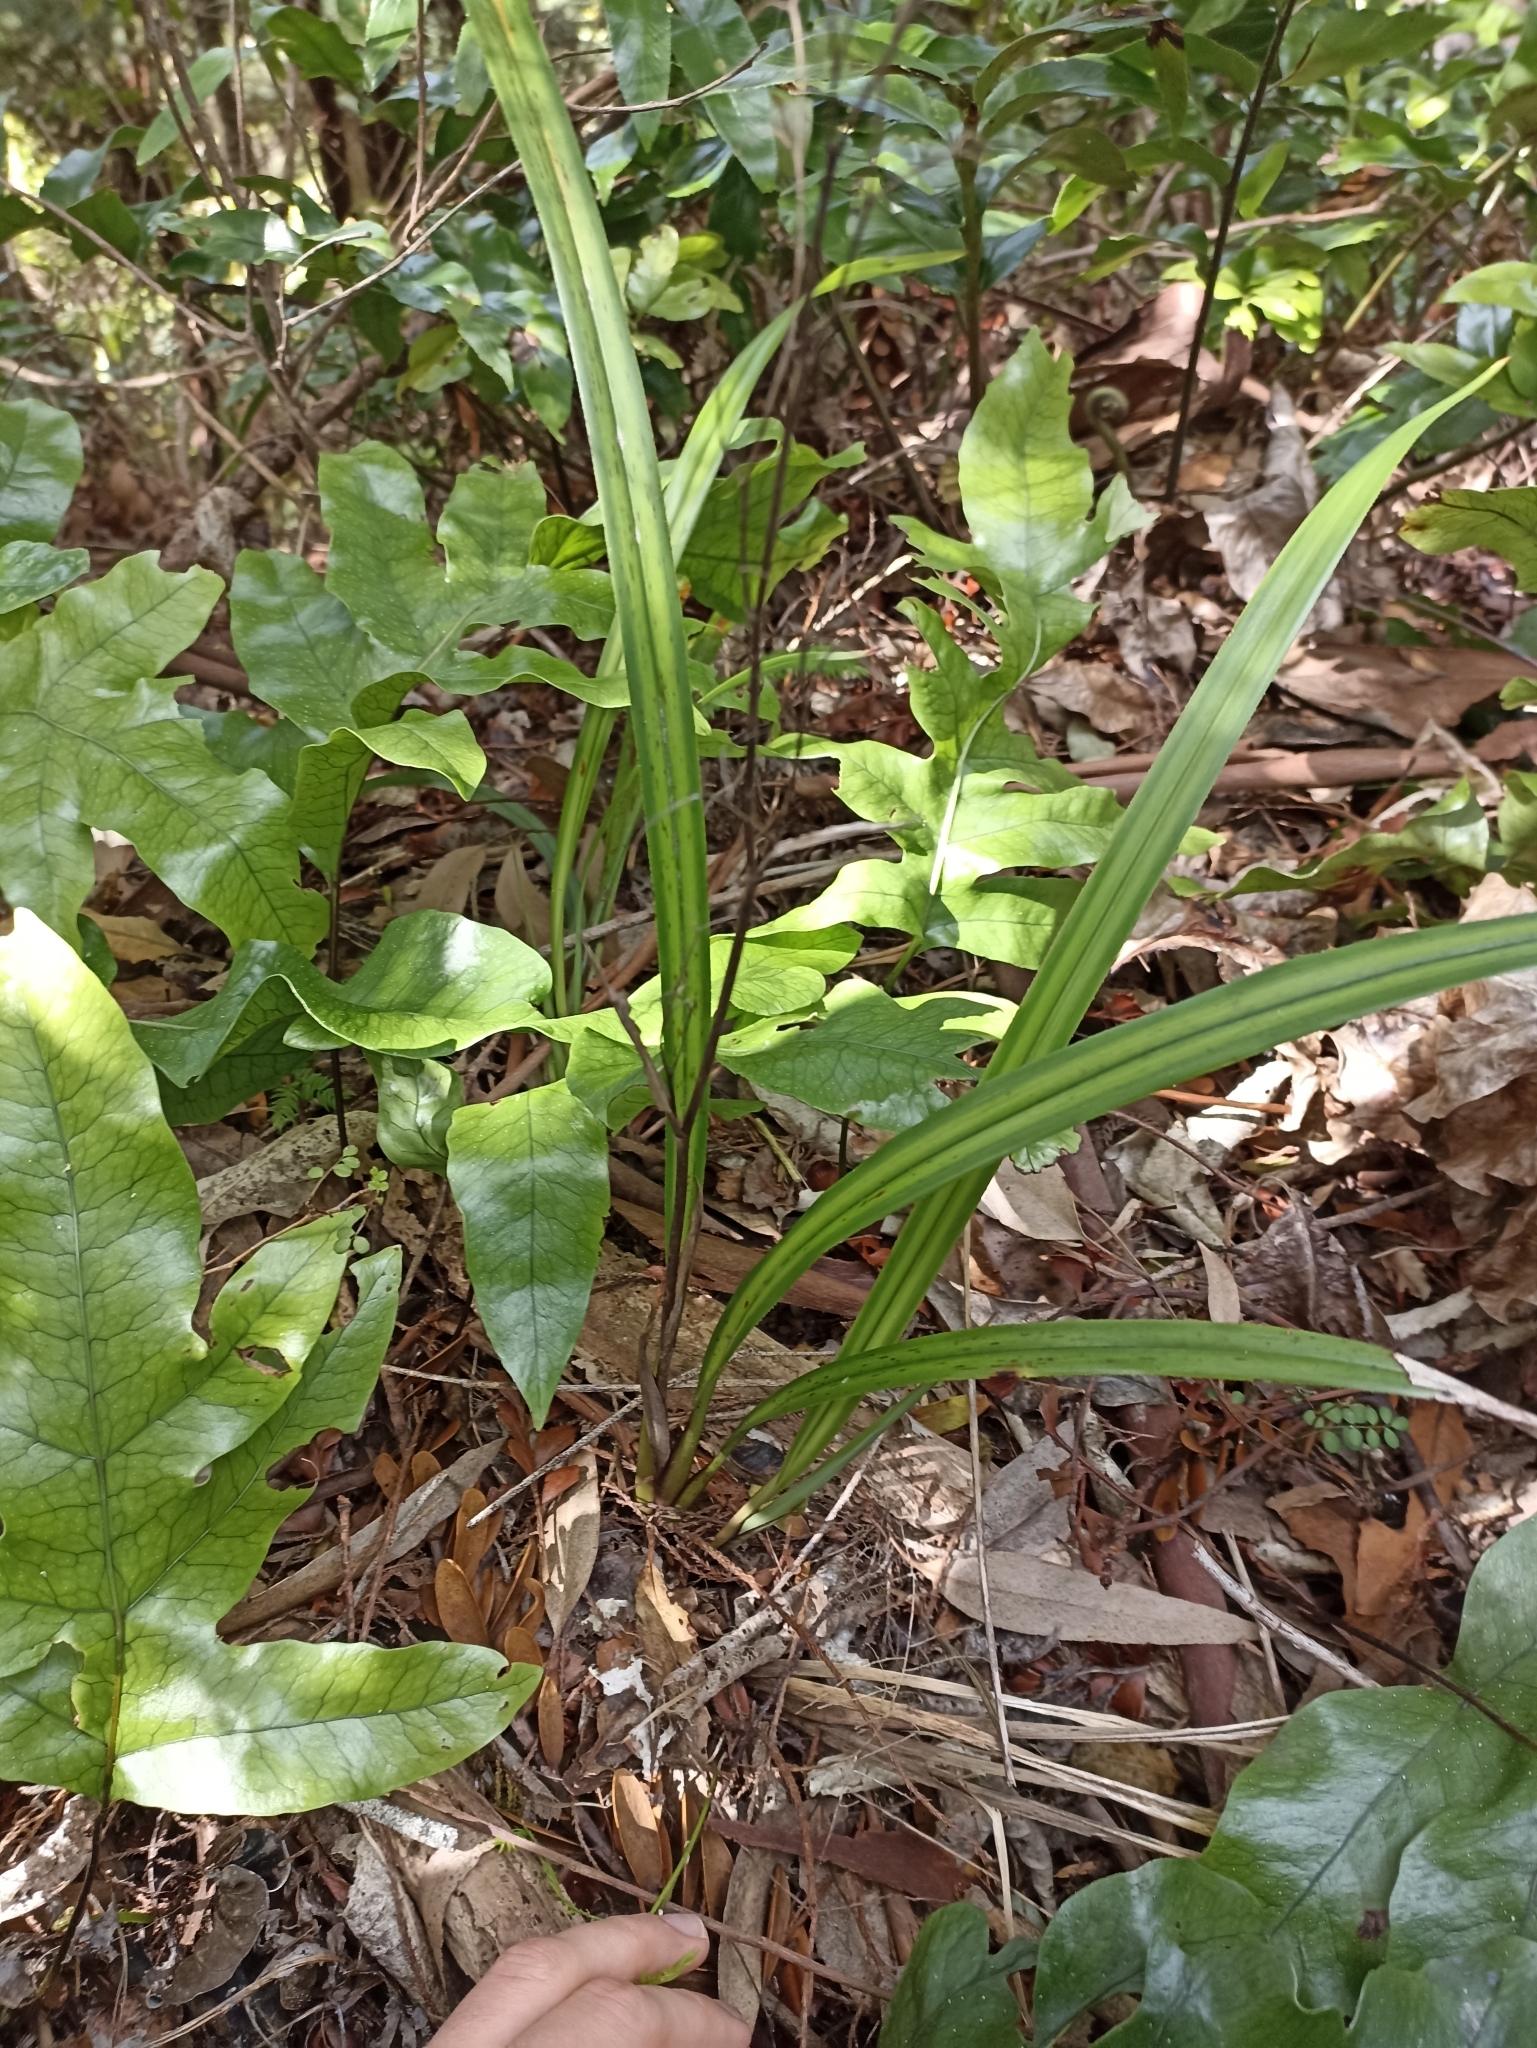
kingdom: Plantae
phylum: Tracheophyta
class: Liliopsida
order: Asparagales
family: Asphodelaceae
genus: Dianella
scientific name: Dianella nigra
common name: New zealand-blueberry
